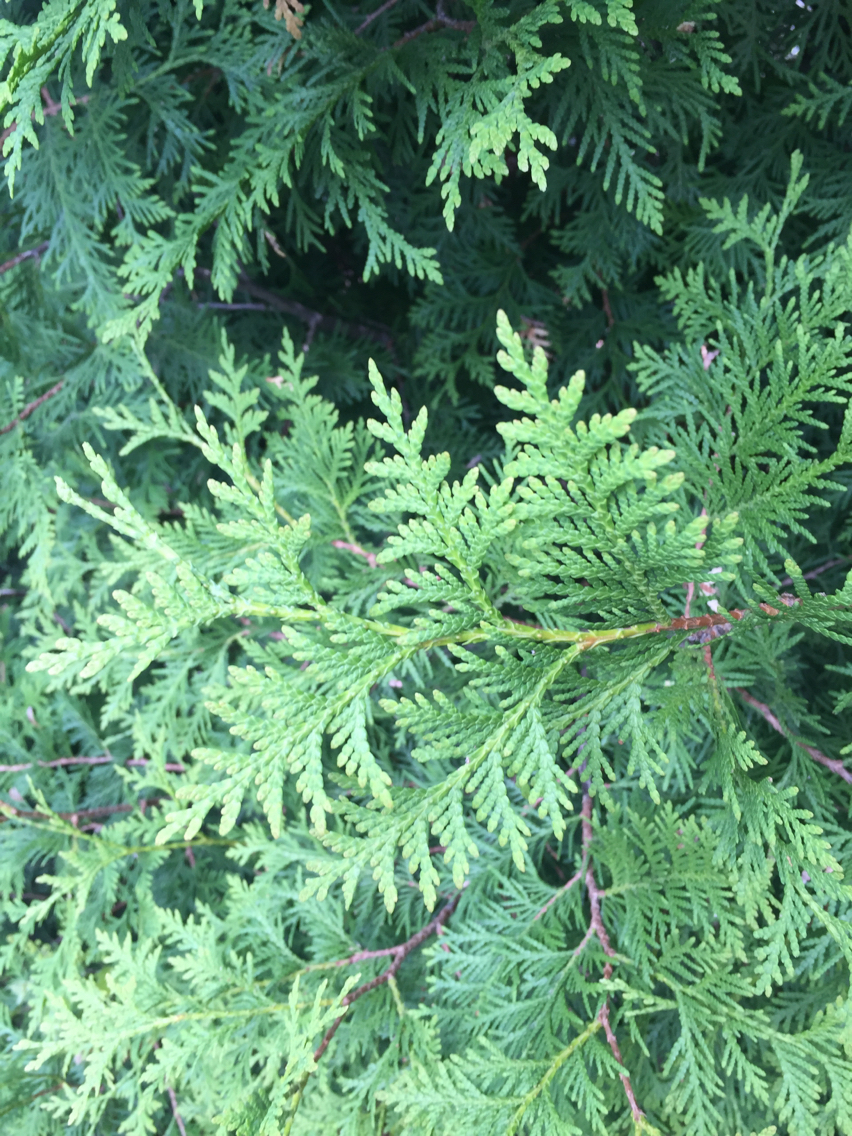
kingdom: Plantae
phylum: Tracheophyta
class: Pinopsida
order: Pinales
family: Cupressaceae
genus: Thuja
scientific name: Thuja occidentalis
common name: Northern white-cedar
